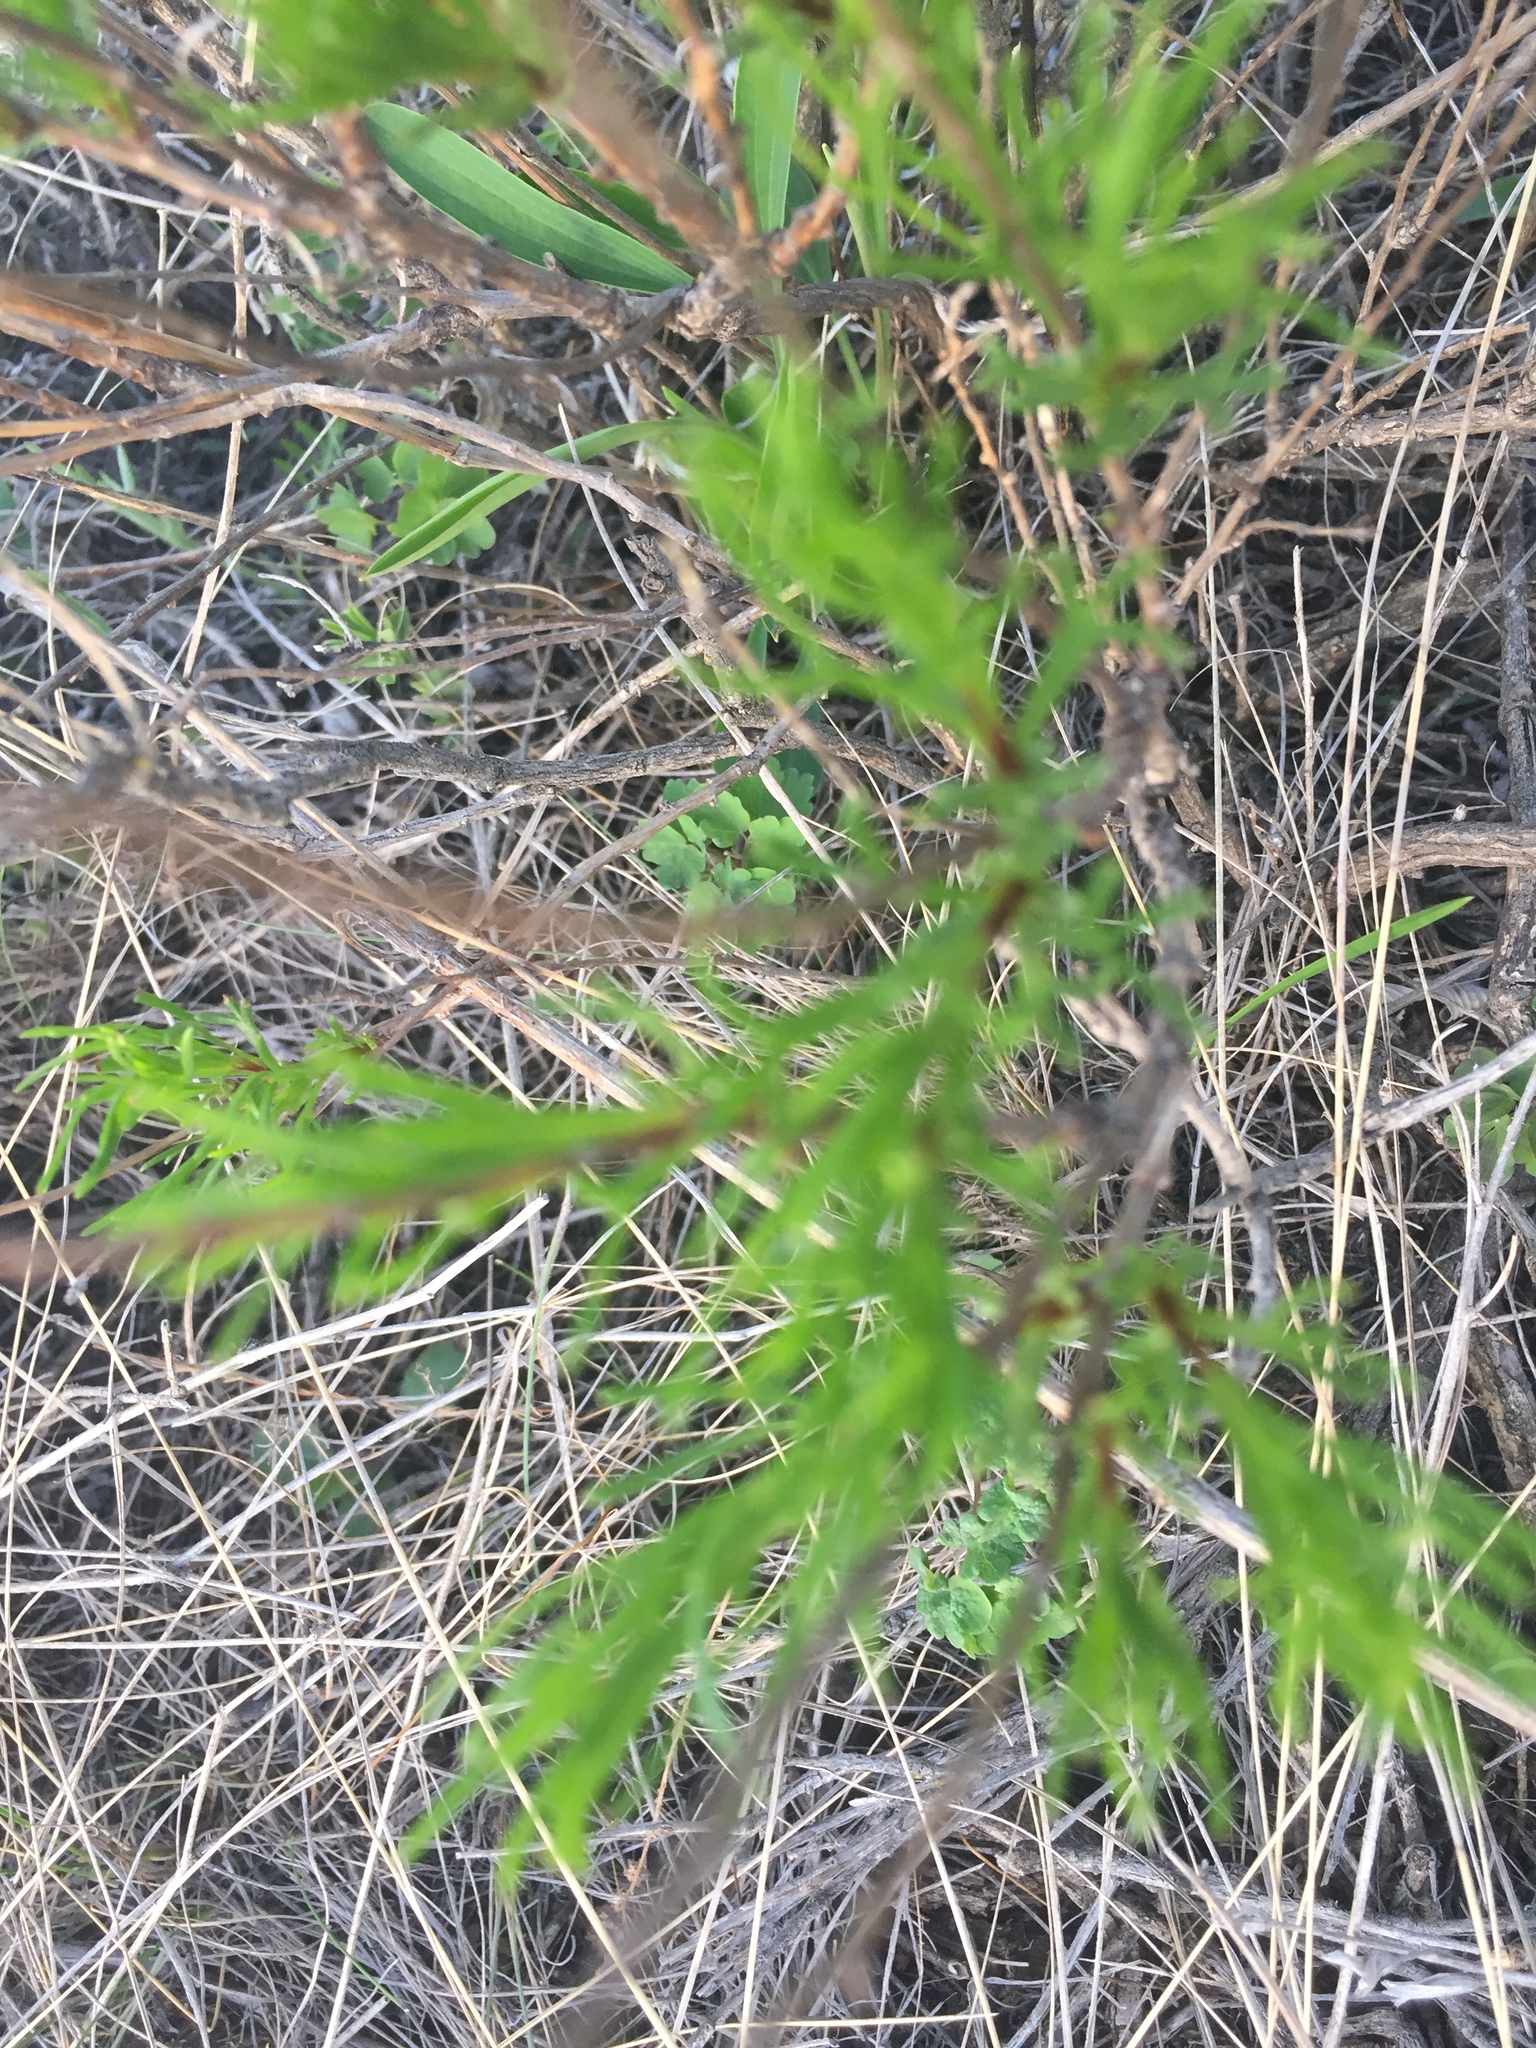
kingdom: Plantae
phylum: Tracheophyta
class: Magnoliopsida
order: Asterales
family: Asteraceae
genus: Artemisia
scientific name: Artemisia salsoloides
